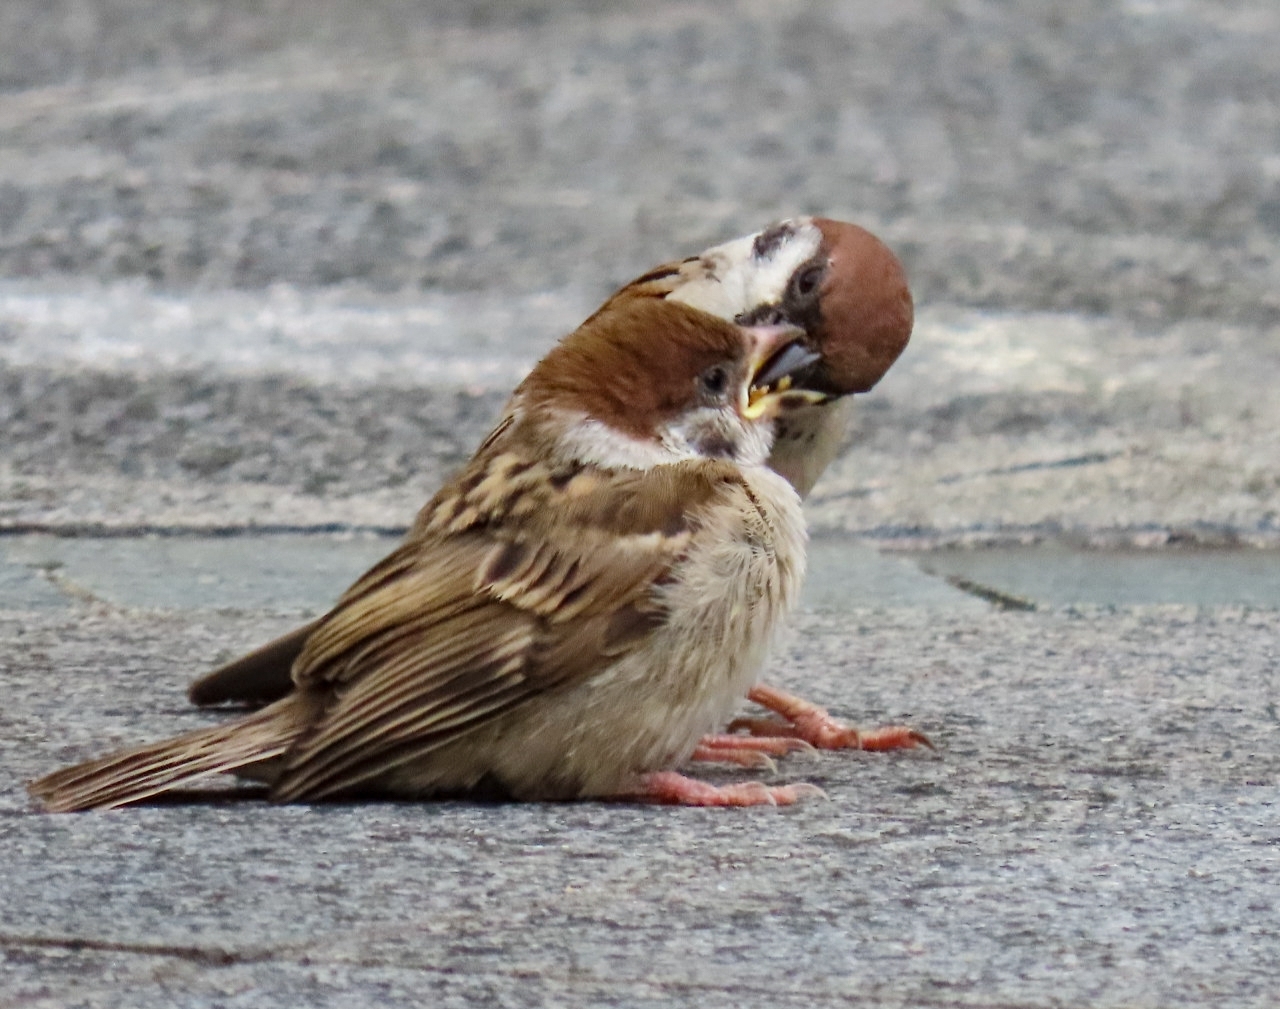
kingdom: Animalia
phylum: Chordata
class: Aves
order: Passeriformes
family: Passeridae
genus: Passer
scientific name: Passer montanus
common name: Eurasian tree sparrow
